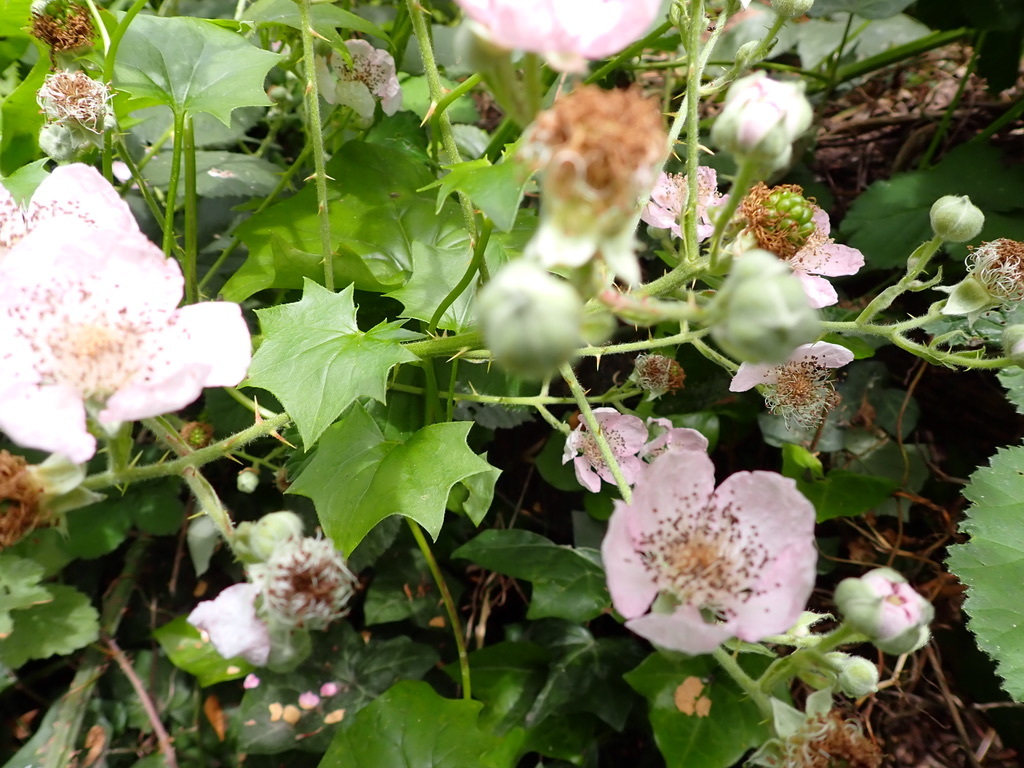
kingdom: Plantae
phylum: Tracheophyta
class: Magnoliopsida
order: Rosales
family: Rosaceae
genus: Rubus
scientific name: Rubus armeniacus
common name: Himalayan blackberry
